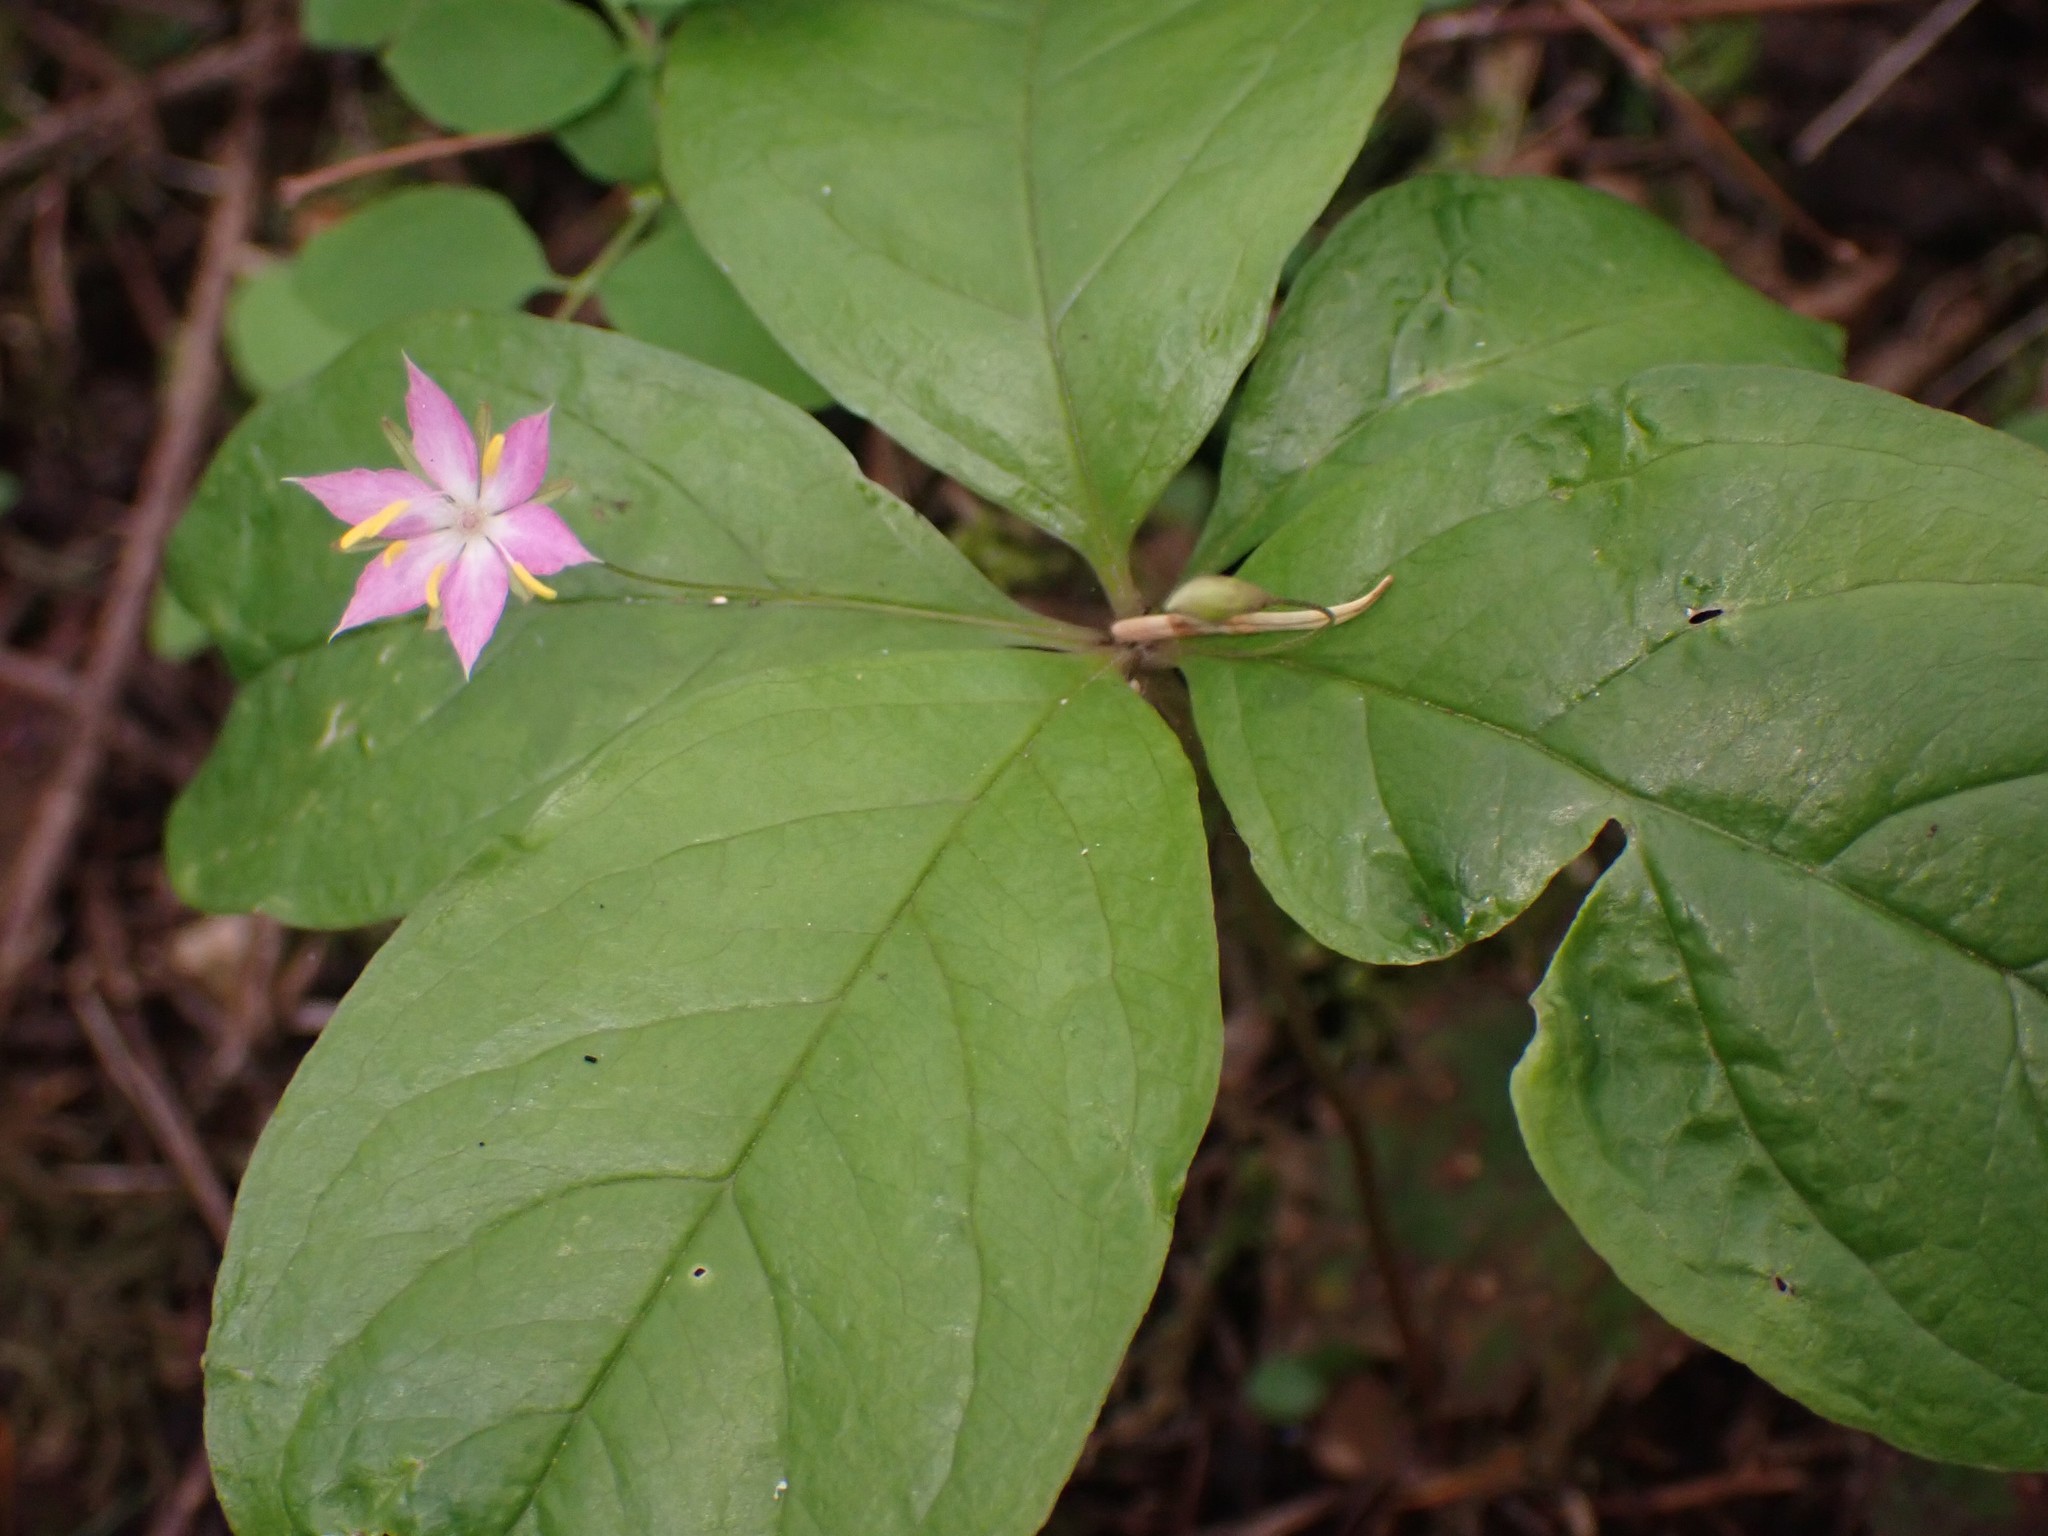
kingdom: Plantae
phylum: Tracheophyta
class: Magnoliopsida
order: Ericales
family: Primulaceae
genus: Lysimachia
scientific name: Lysimachia latifolia
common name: Pacific starflower
